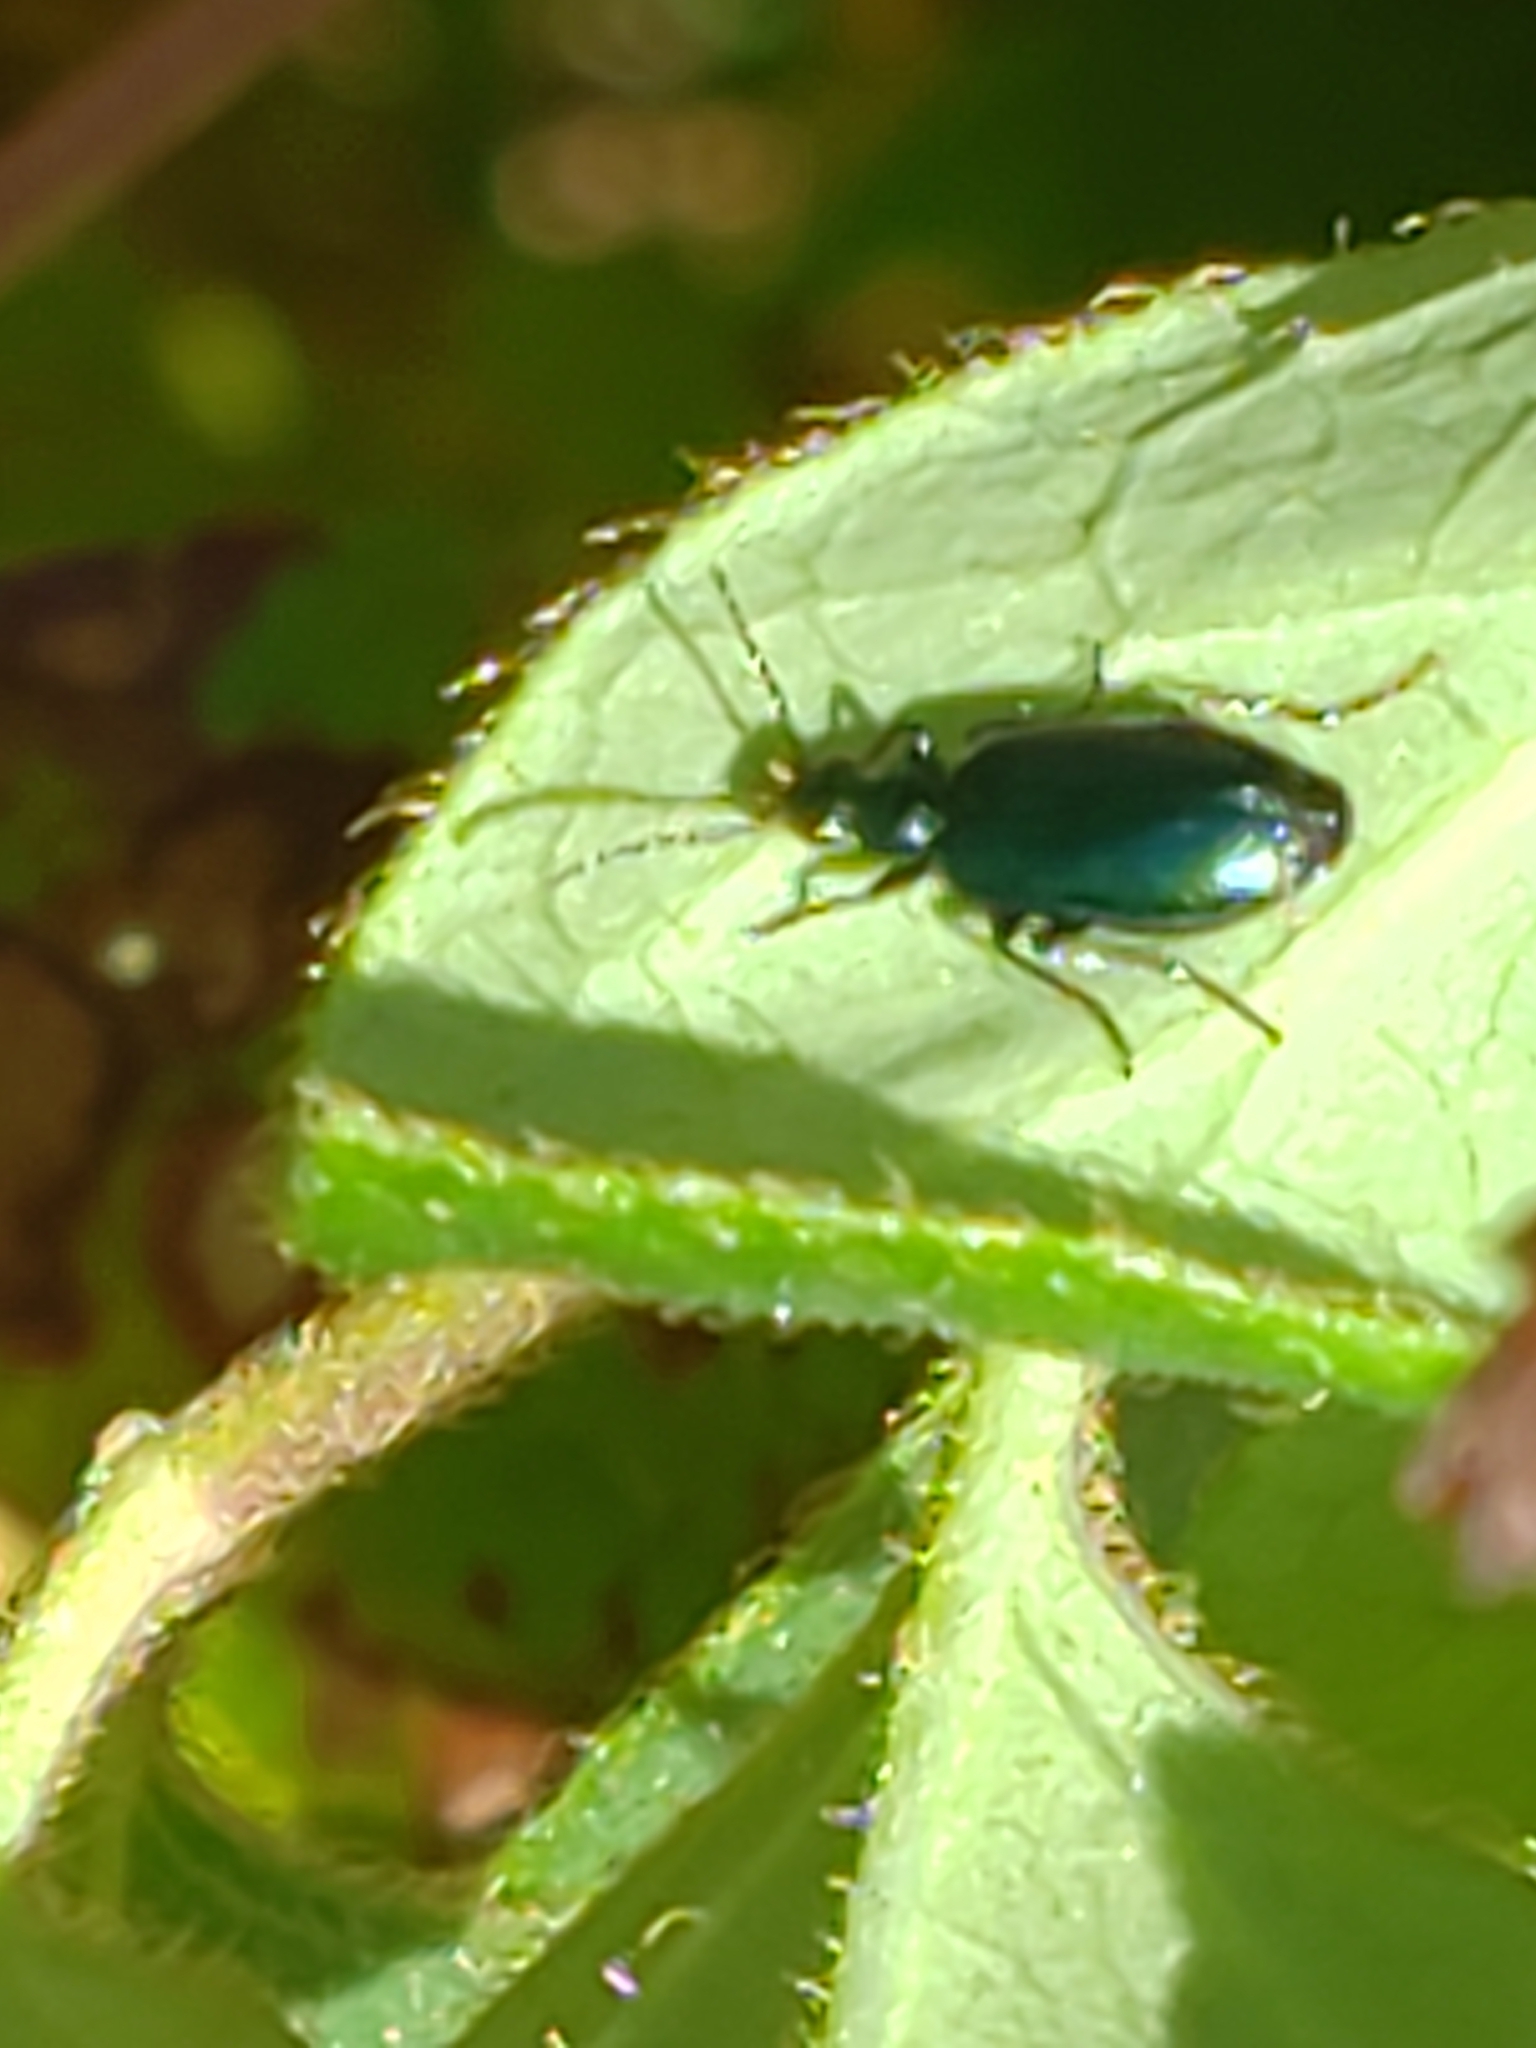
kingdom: Animalia
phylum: Arthropoda
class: Insecta
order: Coleoptera
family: Carabidae
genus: Lebia
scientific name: Lebia viridis
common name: Flower lebia beetle
